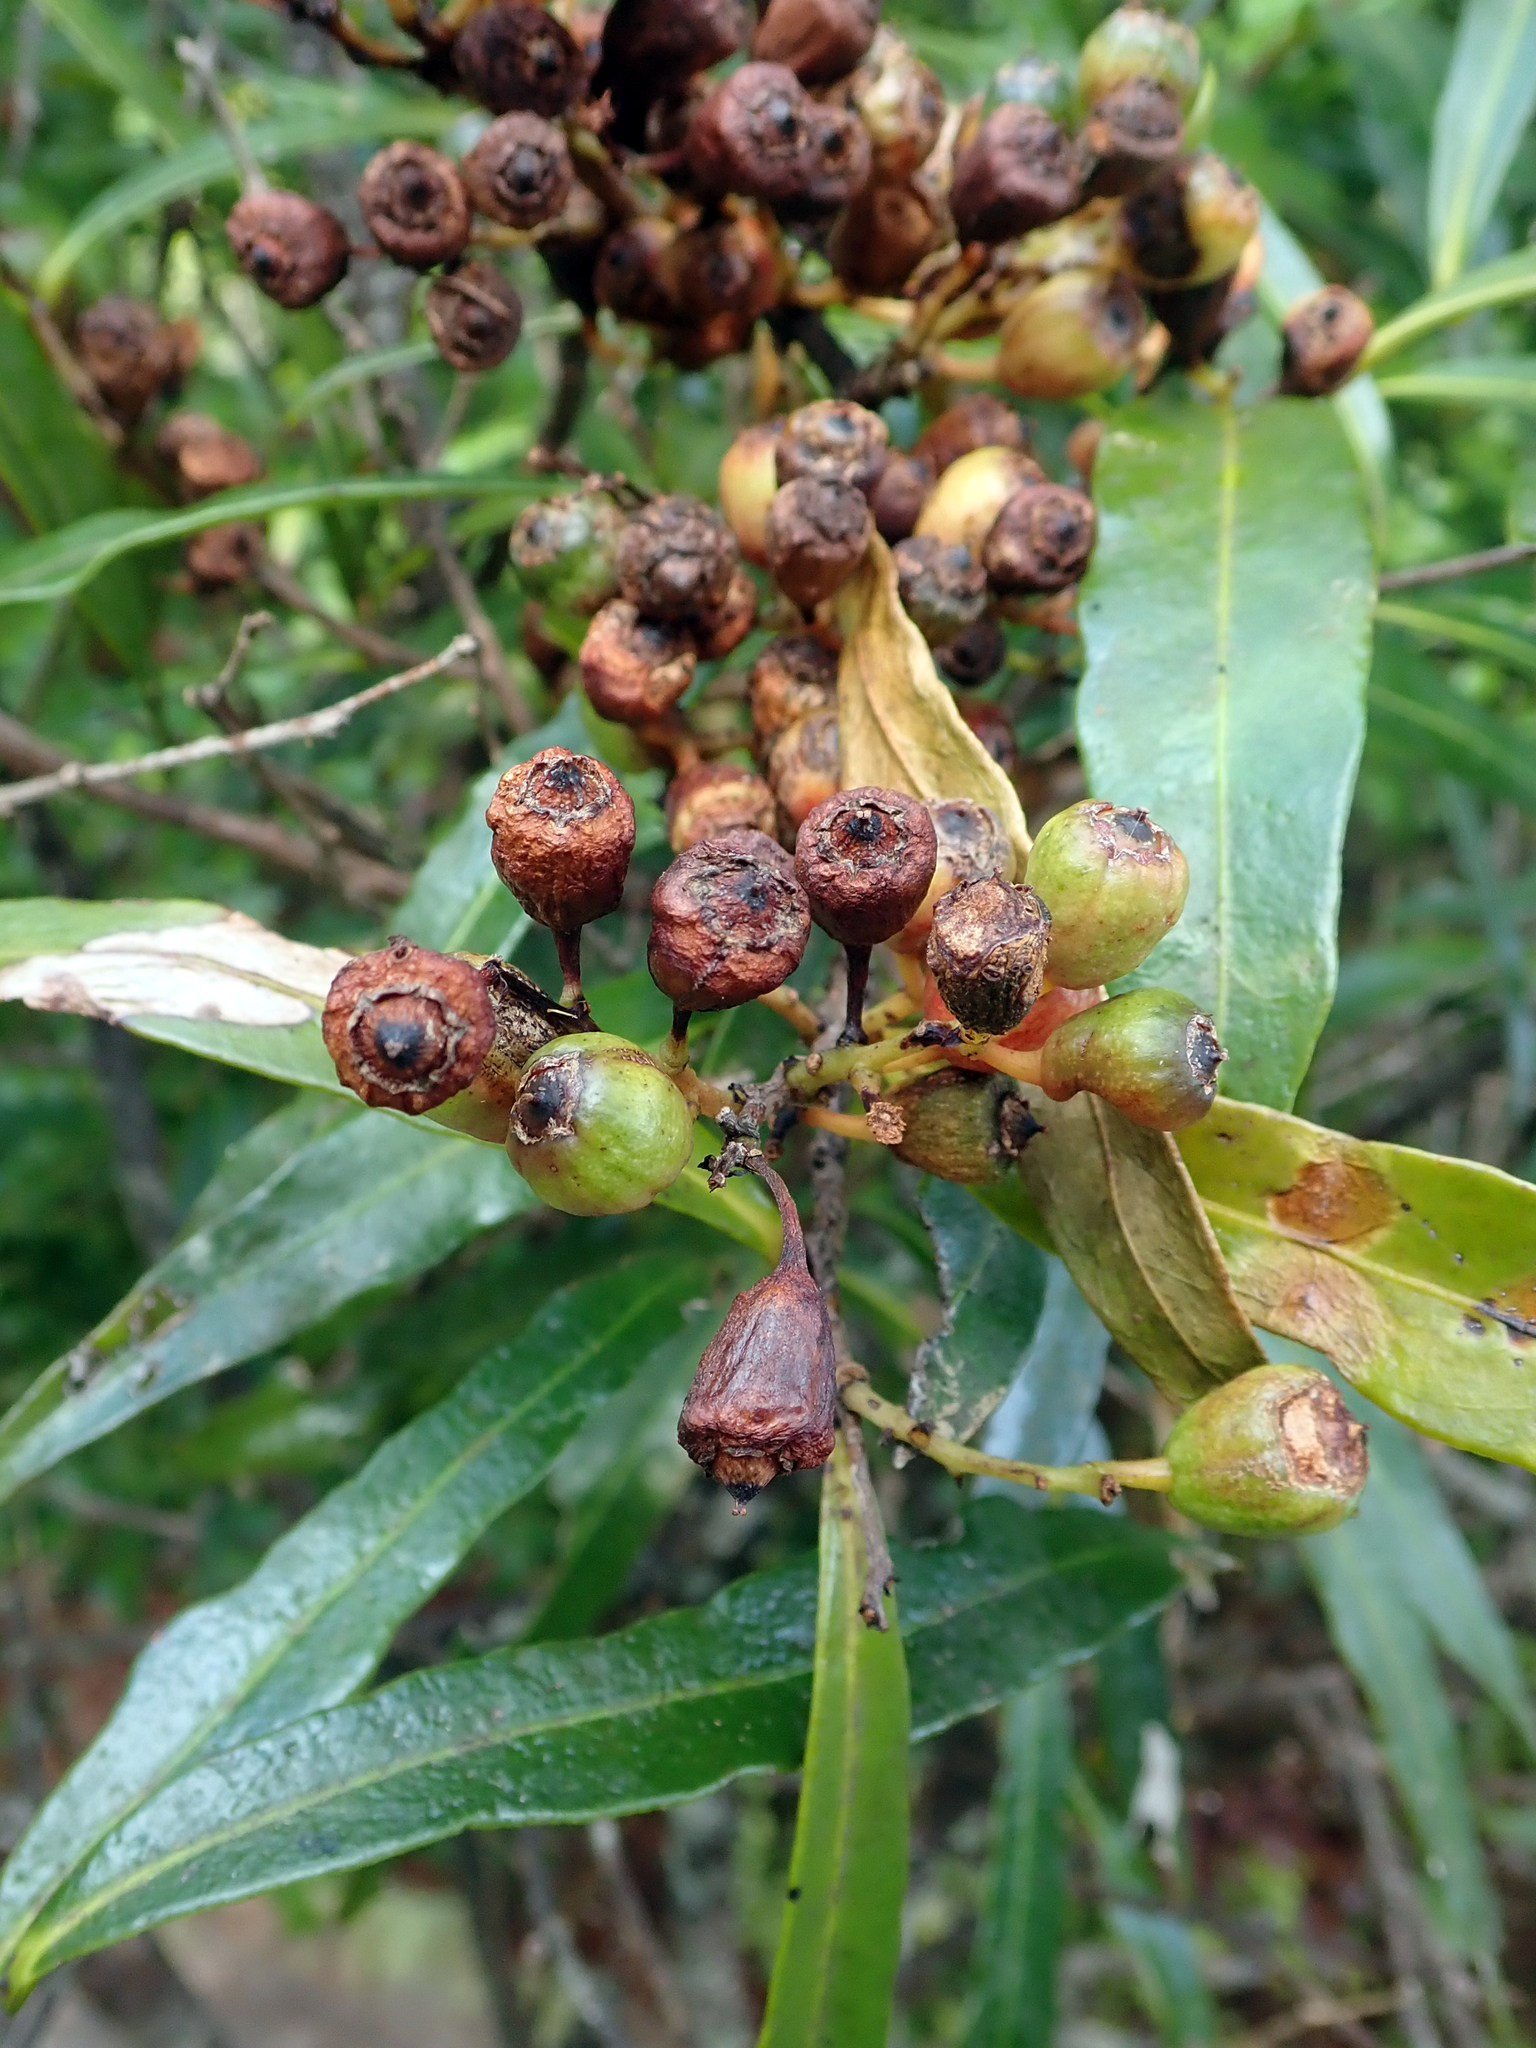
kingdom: Plantae
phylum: Tracheophyta
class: Magnoliopsida
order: Santalales
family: Nanodeaceae
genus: Mida
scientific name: Mida salicifolia
